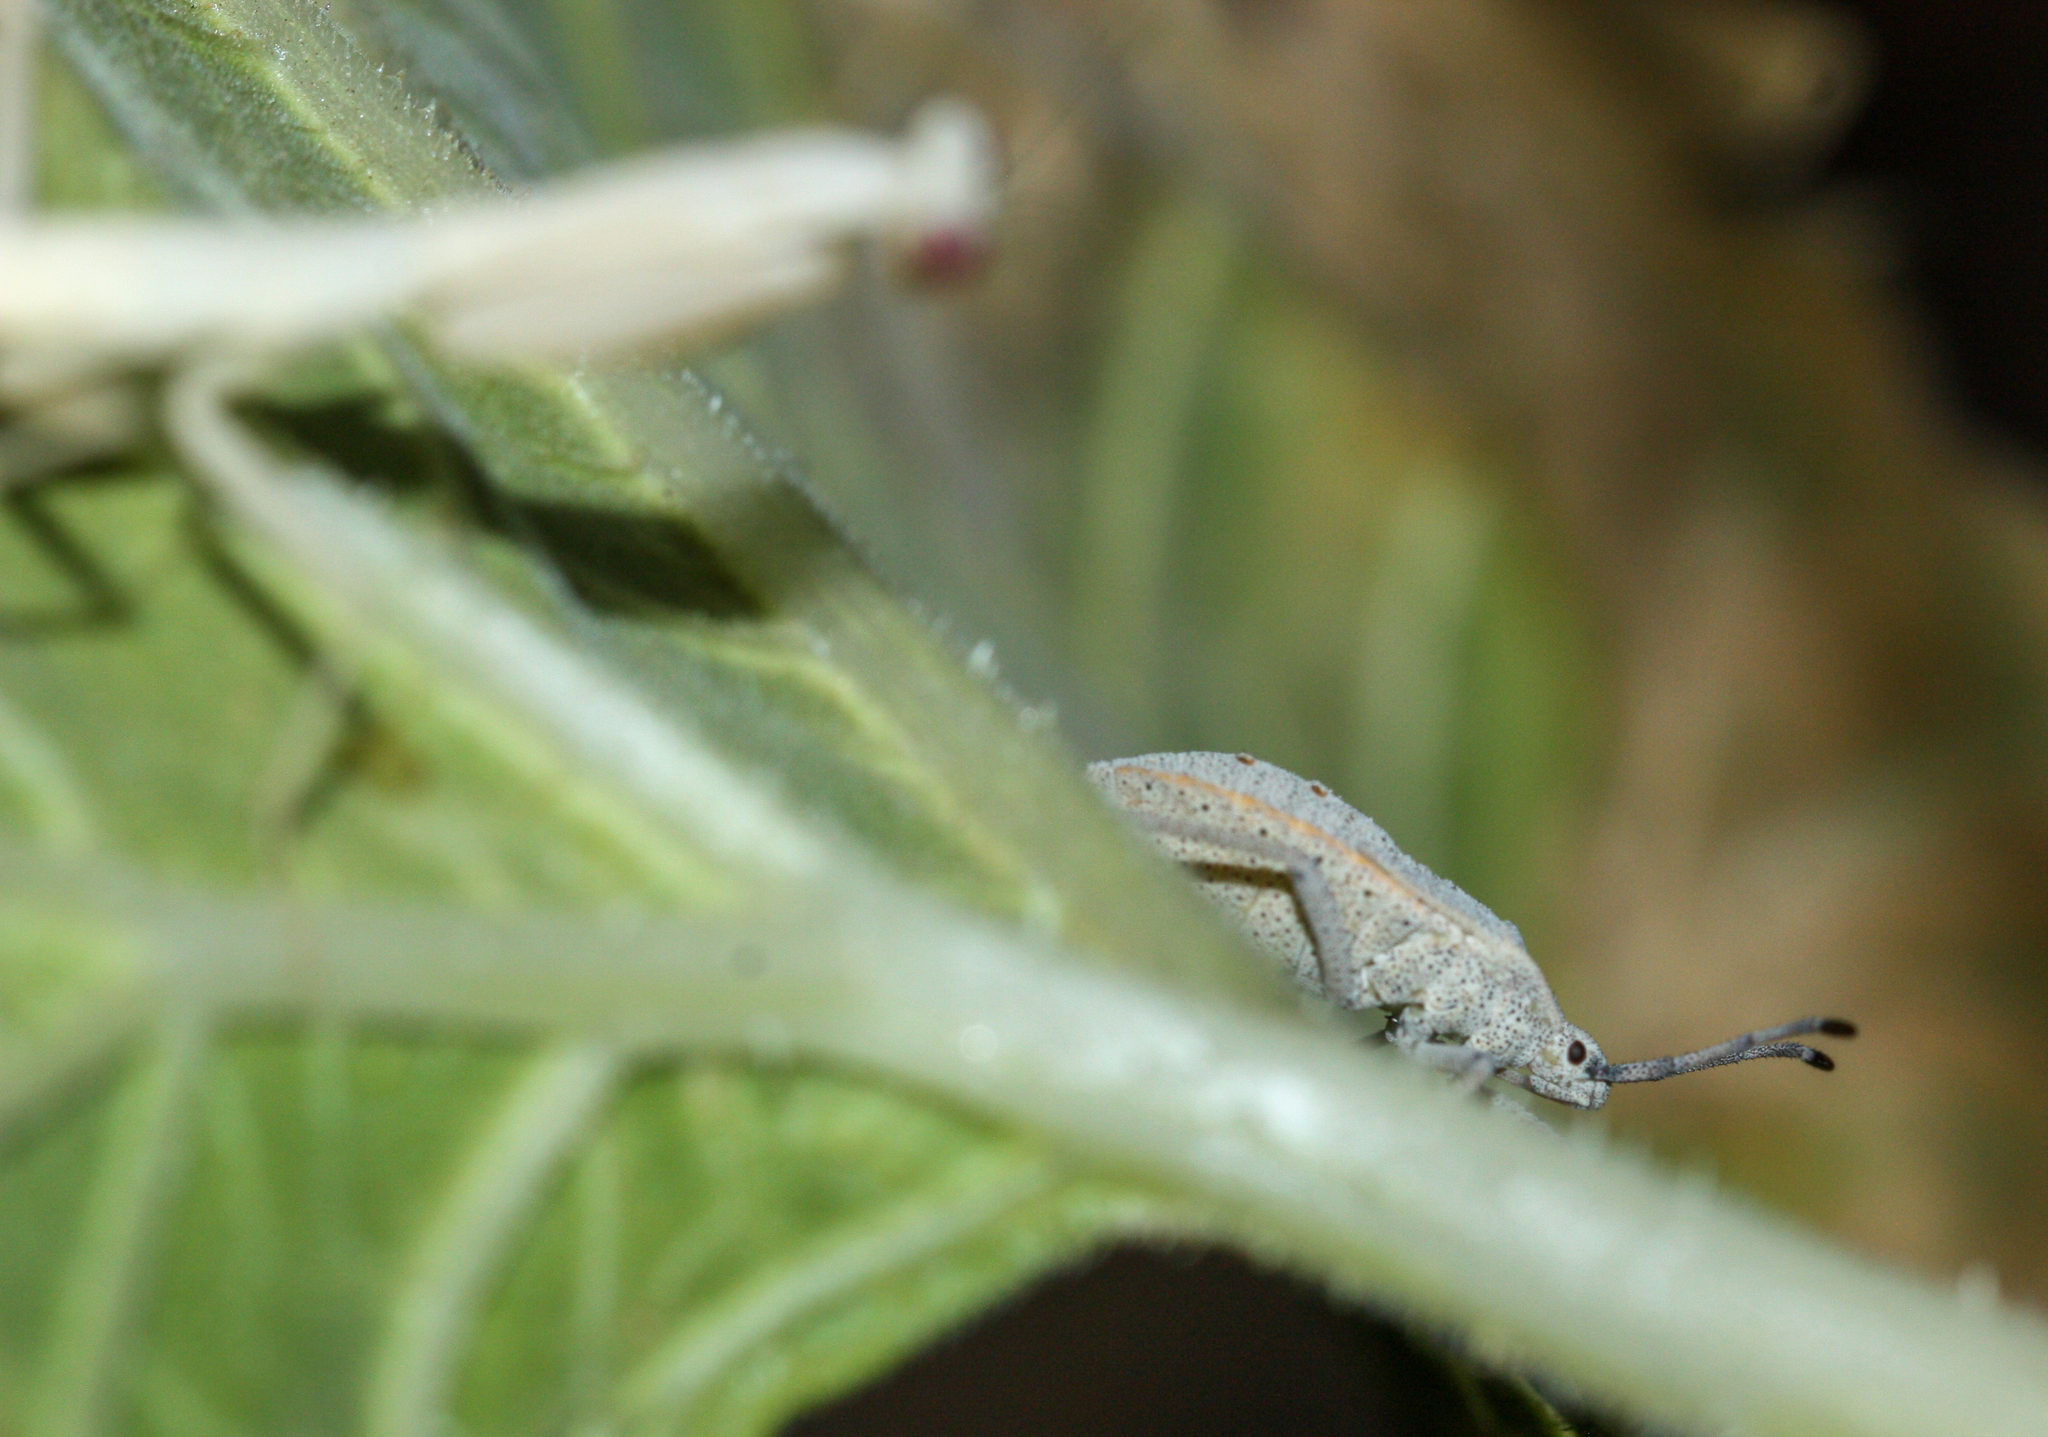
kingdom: Animalia
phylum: Arthropoda
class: Insecta
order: Mantodea
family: Eremiaphilidae
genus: Iris
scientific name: Iris oratoria
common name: Mediterranean mantis
